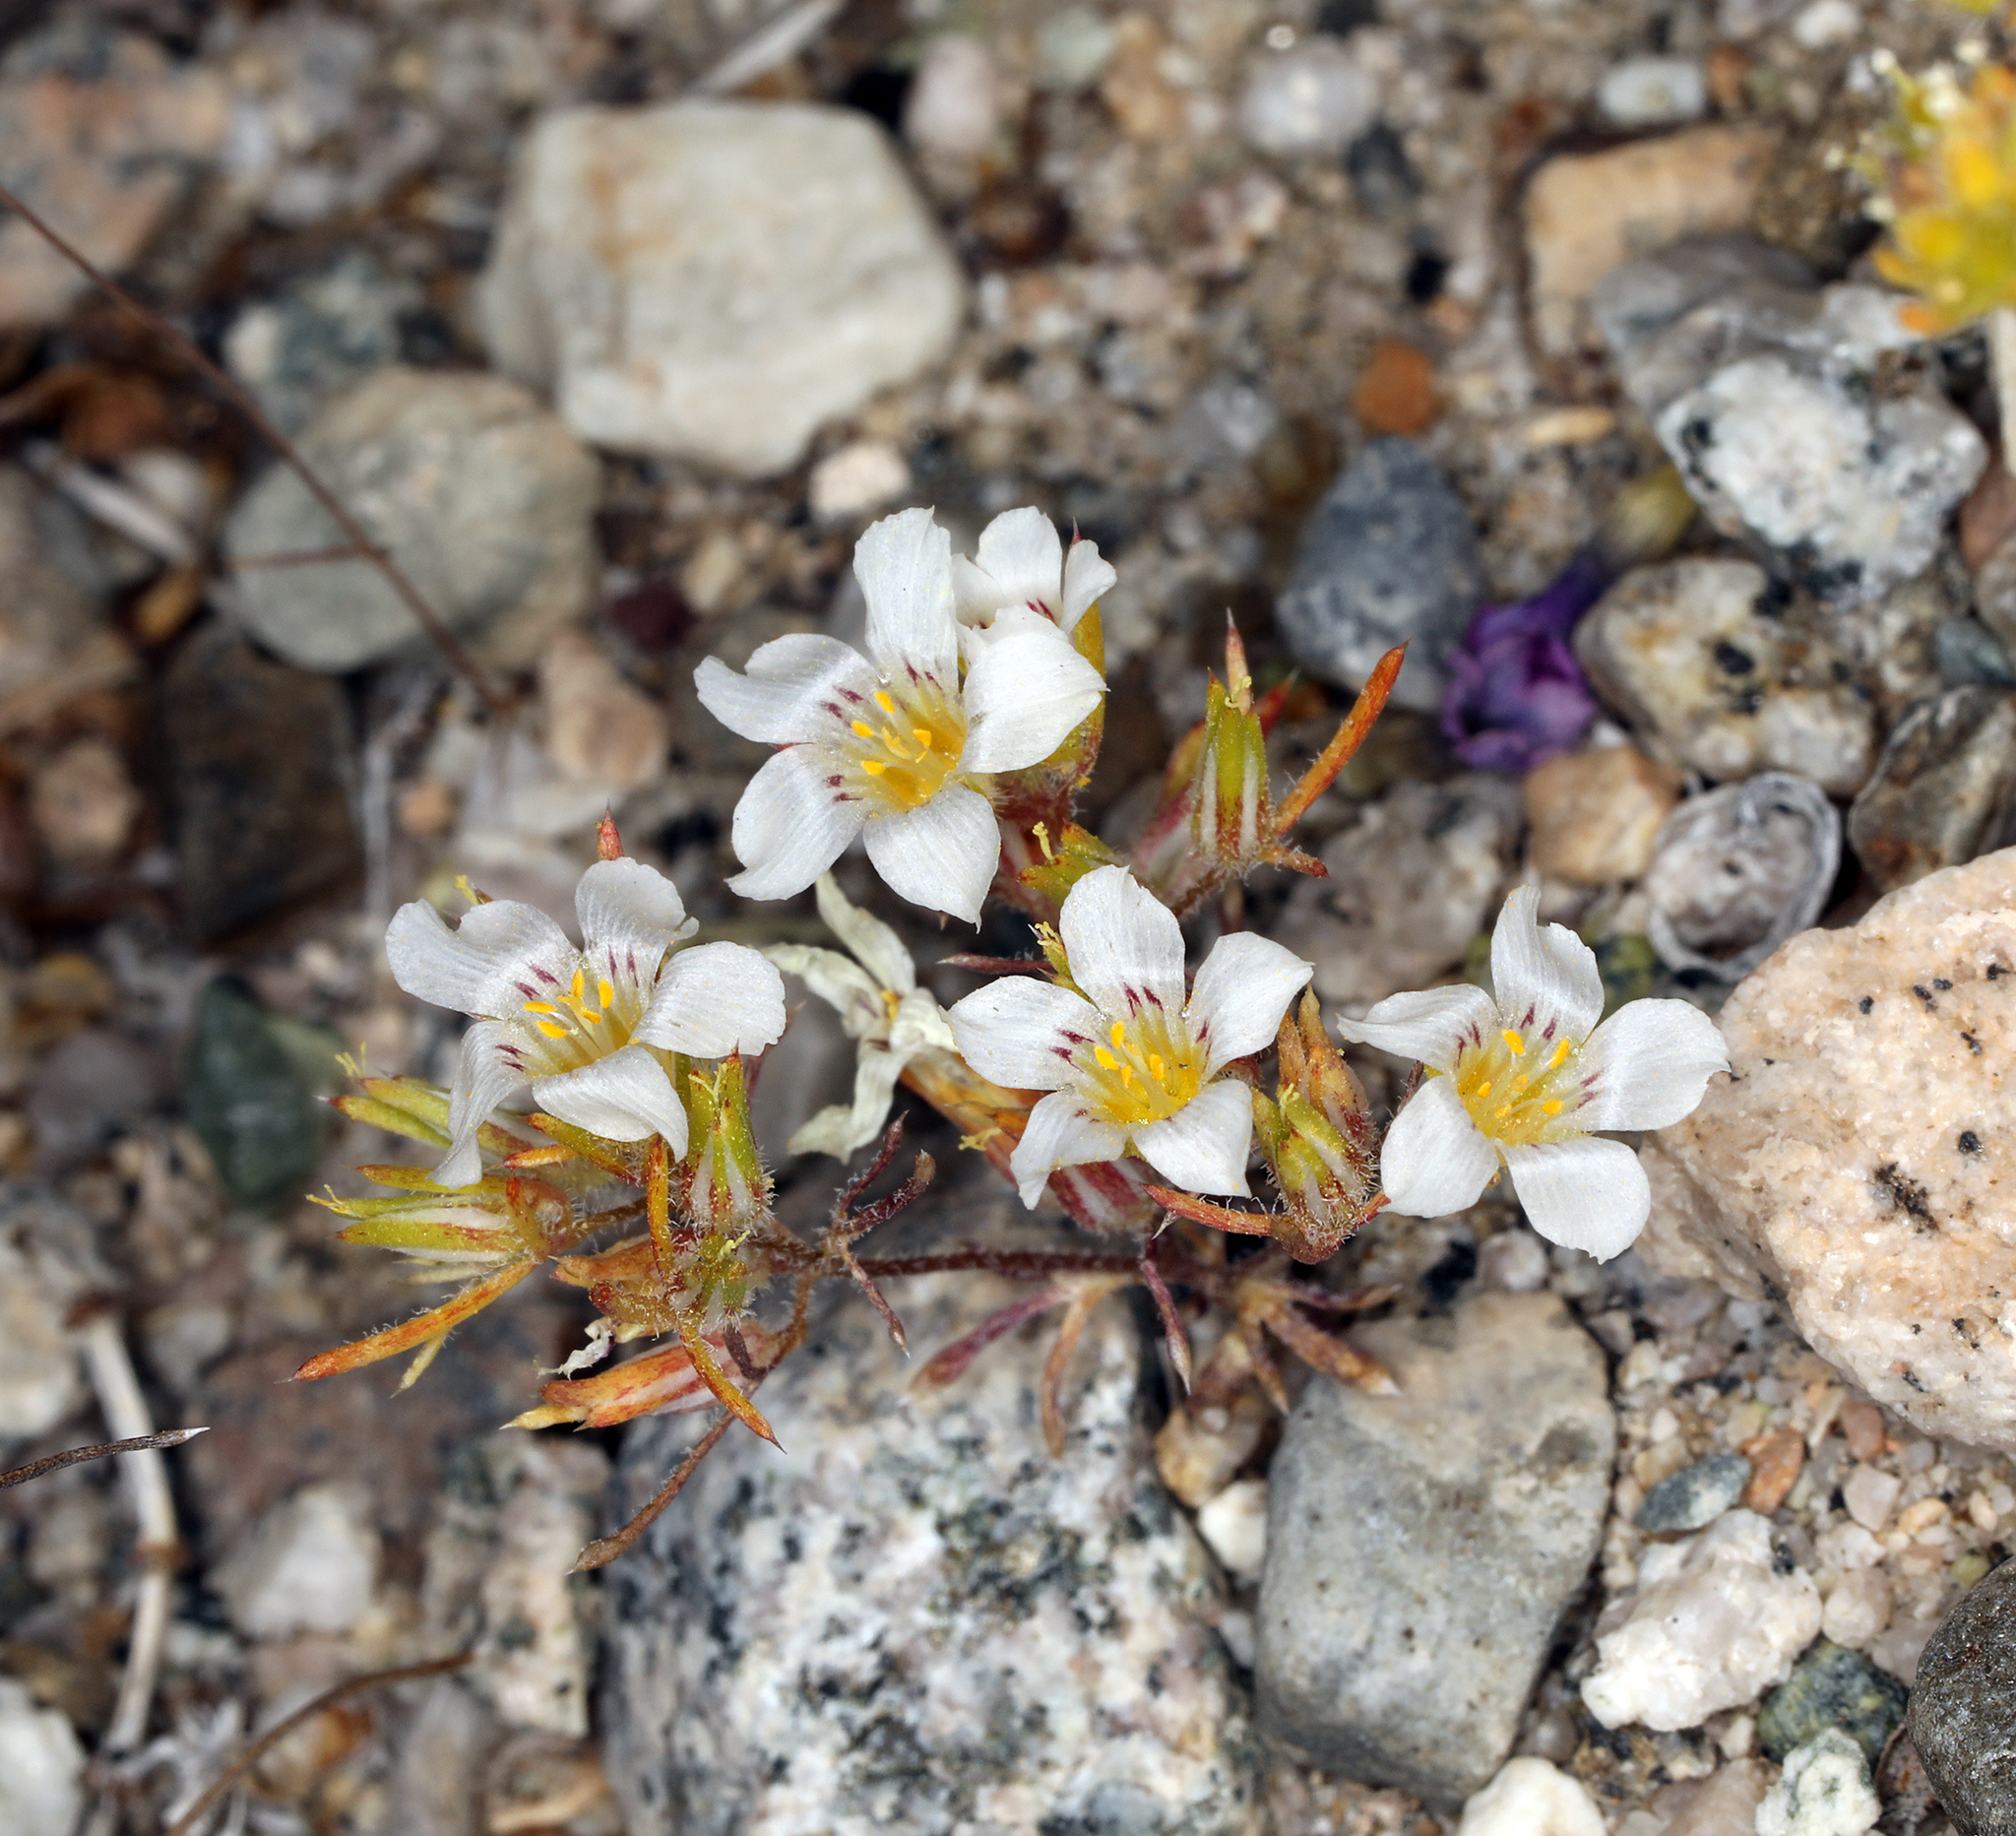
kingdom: Plantae
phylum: Tracheophyta
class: Magnoliopsida
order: Ericales
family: Polemoniaceae
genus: Linanthus
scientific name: Linanthus demissus
